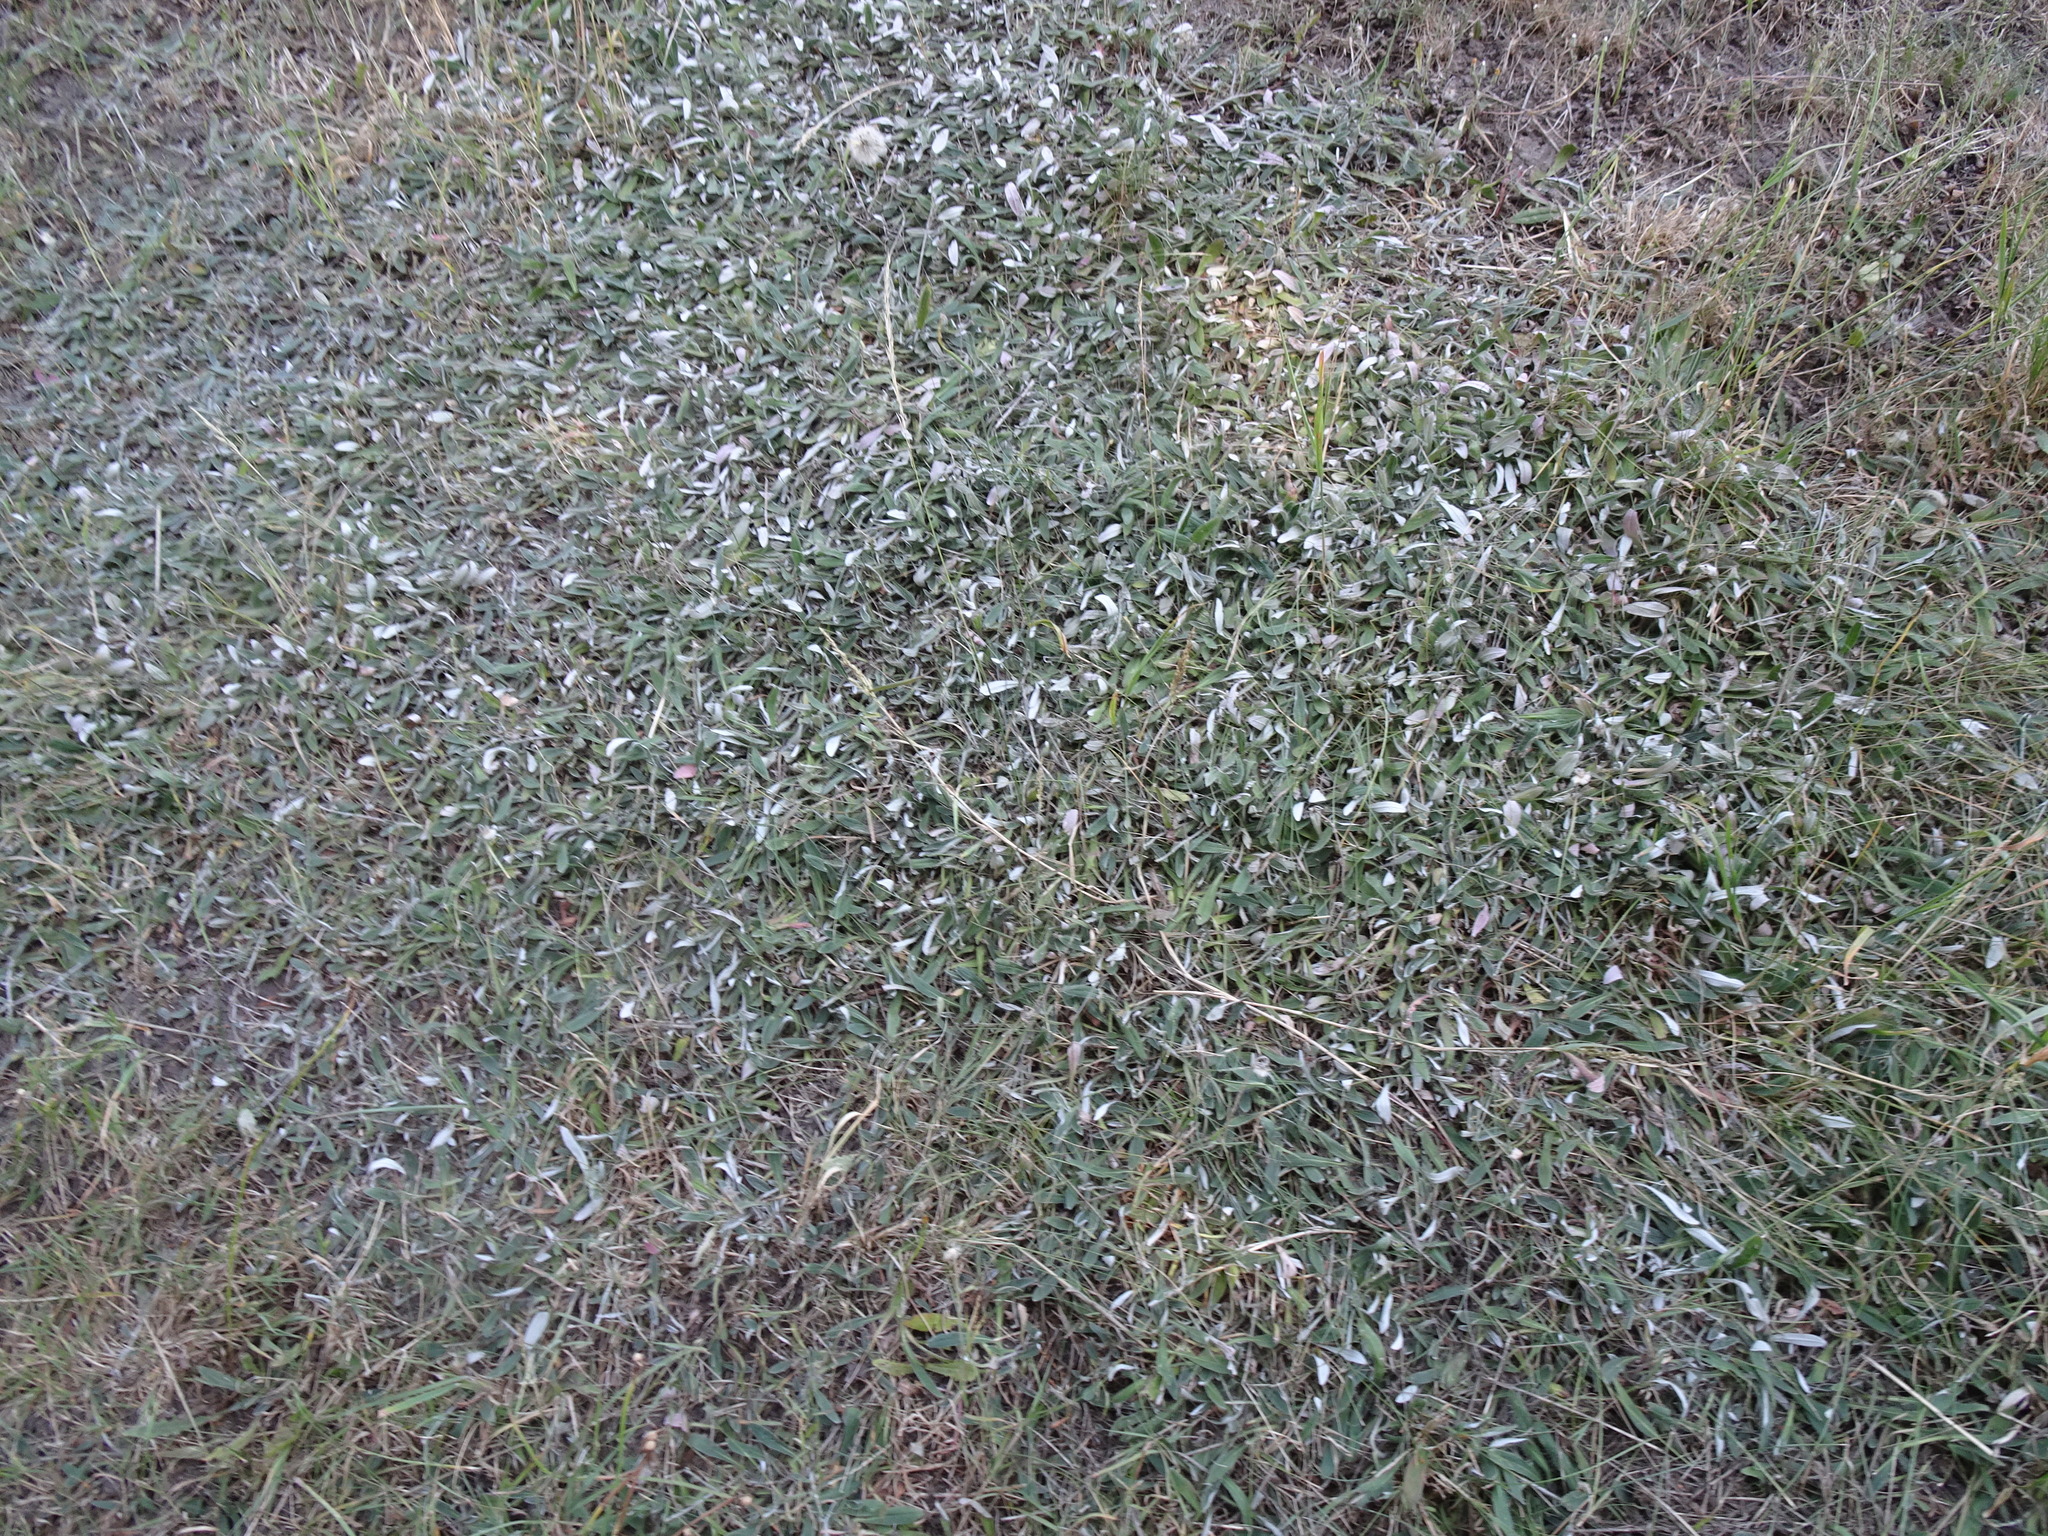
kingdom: Plantae
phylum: Tracheophyta
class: Magnoliopsida
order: Asterales
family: Asteraceae
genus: Pilosella
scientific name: Pilosella officinarum
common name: Mouse-ear hawkweed
